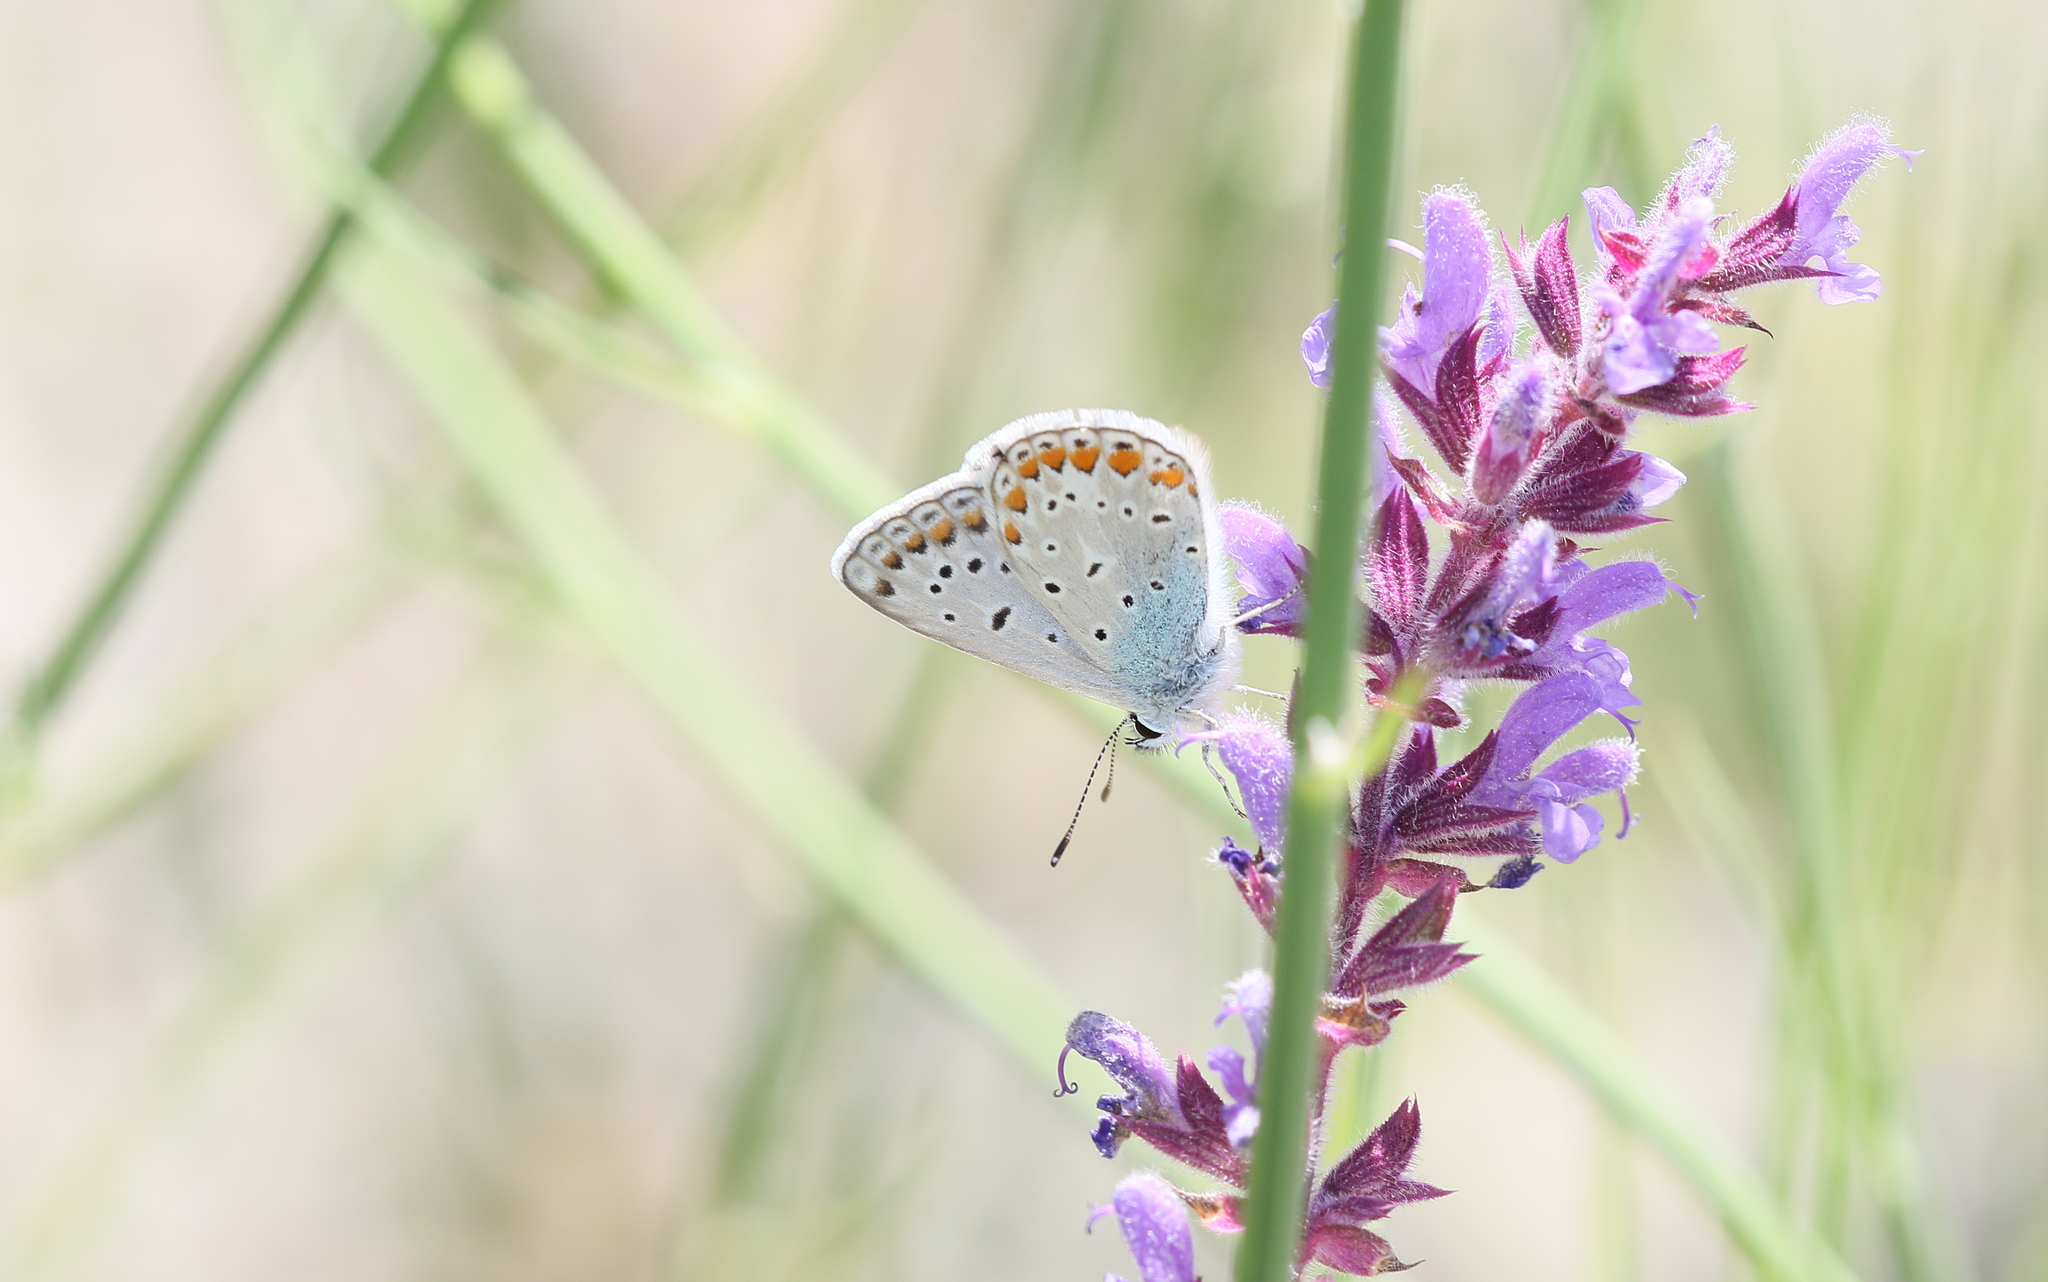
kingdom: Animalia
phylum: Arthropoda
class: Insecta
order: Lepidoptera
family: Lycaenidae
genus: Polyommatus
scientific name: Polyommatus icarus
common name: Common blue
